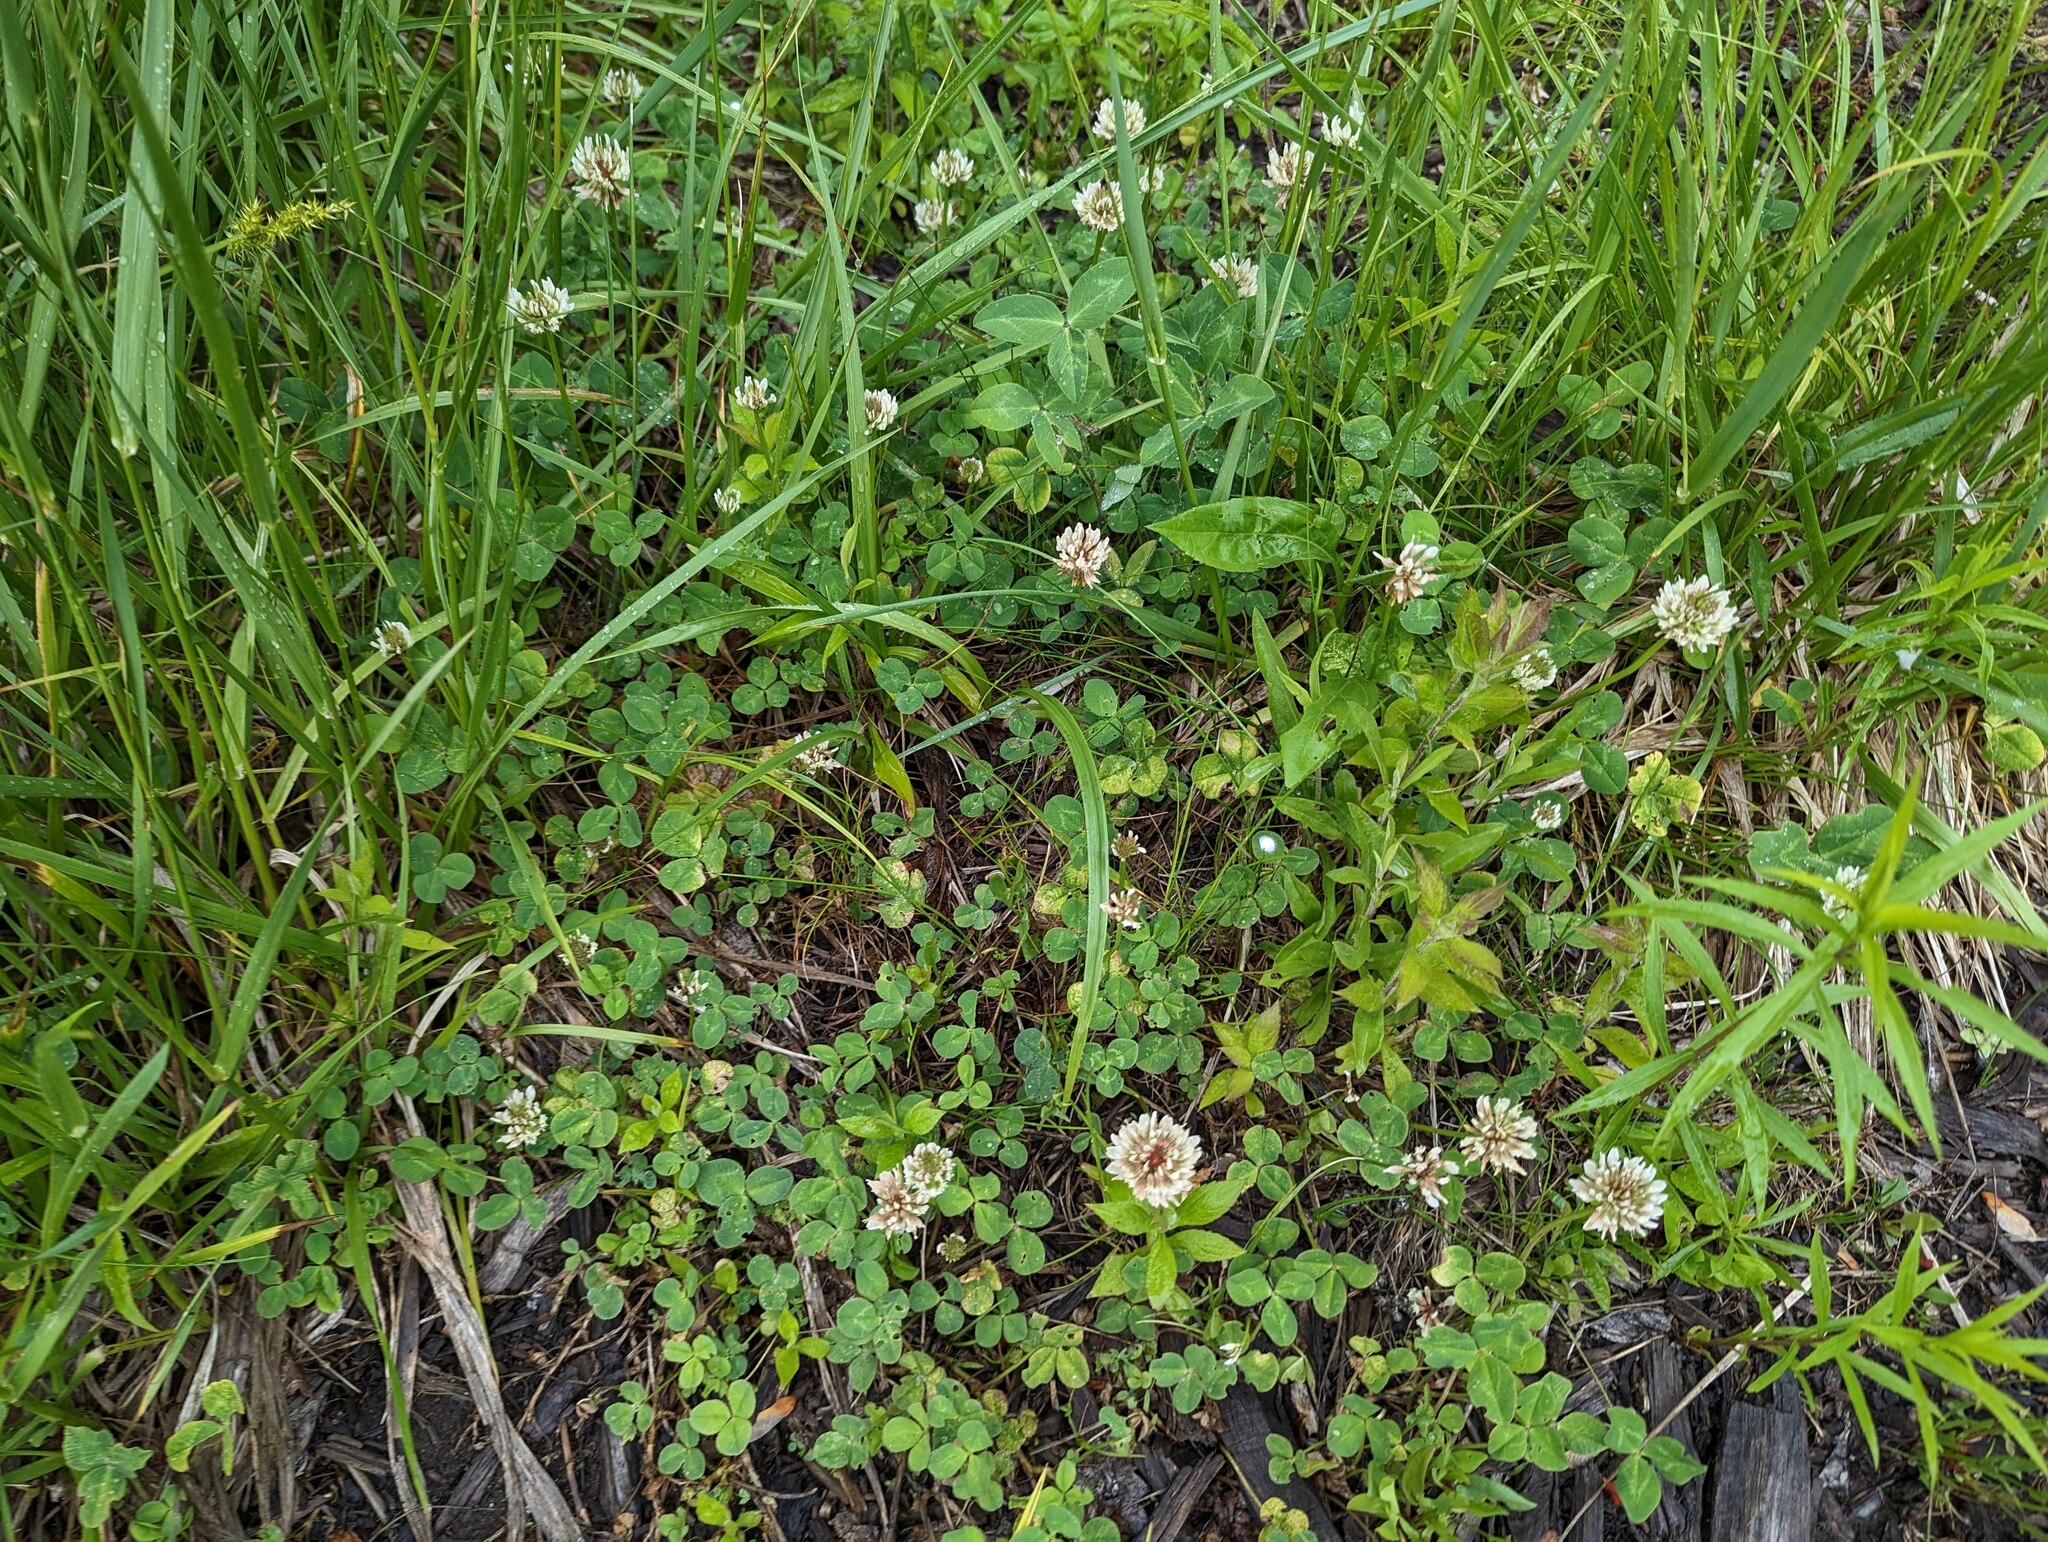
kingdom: Plantae
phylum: Tracheophyta
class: Magnoliopsida
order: Fabales
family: Fabaceae
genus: Trifolium
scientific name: Trifolium repens
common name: White clover
